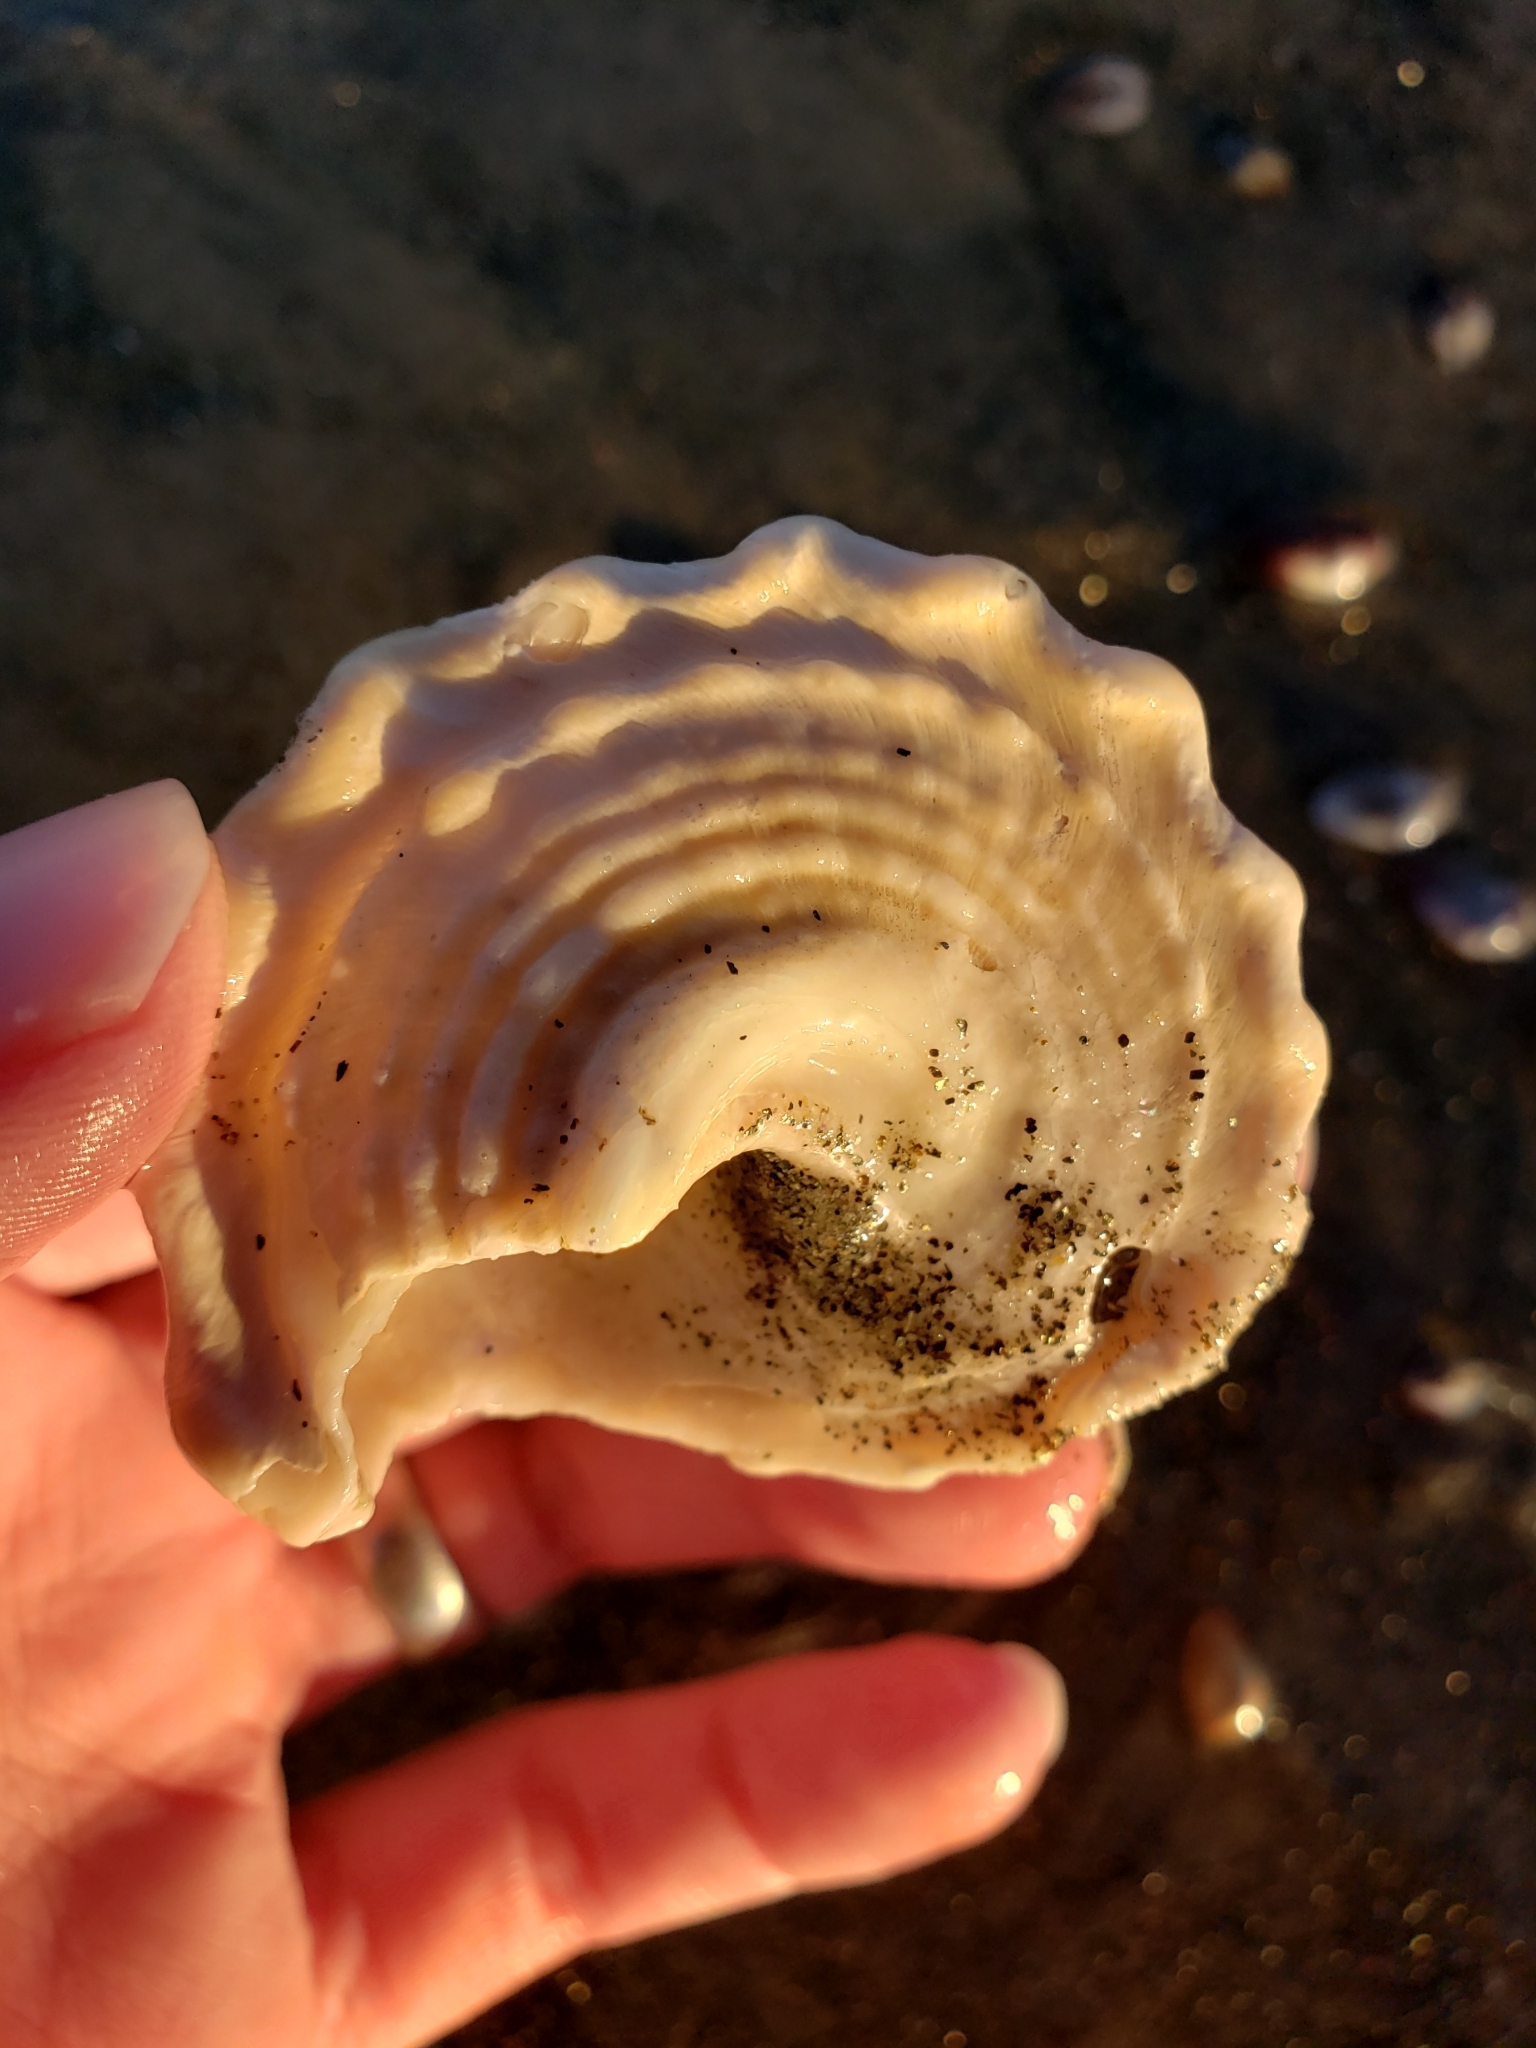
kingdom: Animalia
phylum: Mollusca
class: Gastropoda
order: Trochida
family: Turbinidae
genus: Megastraea
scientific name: Megastraea undosa
